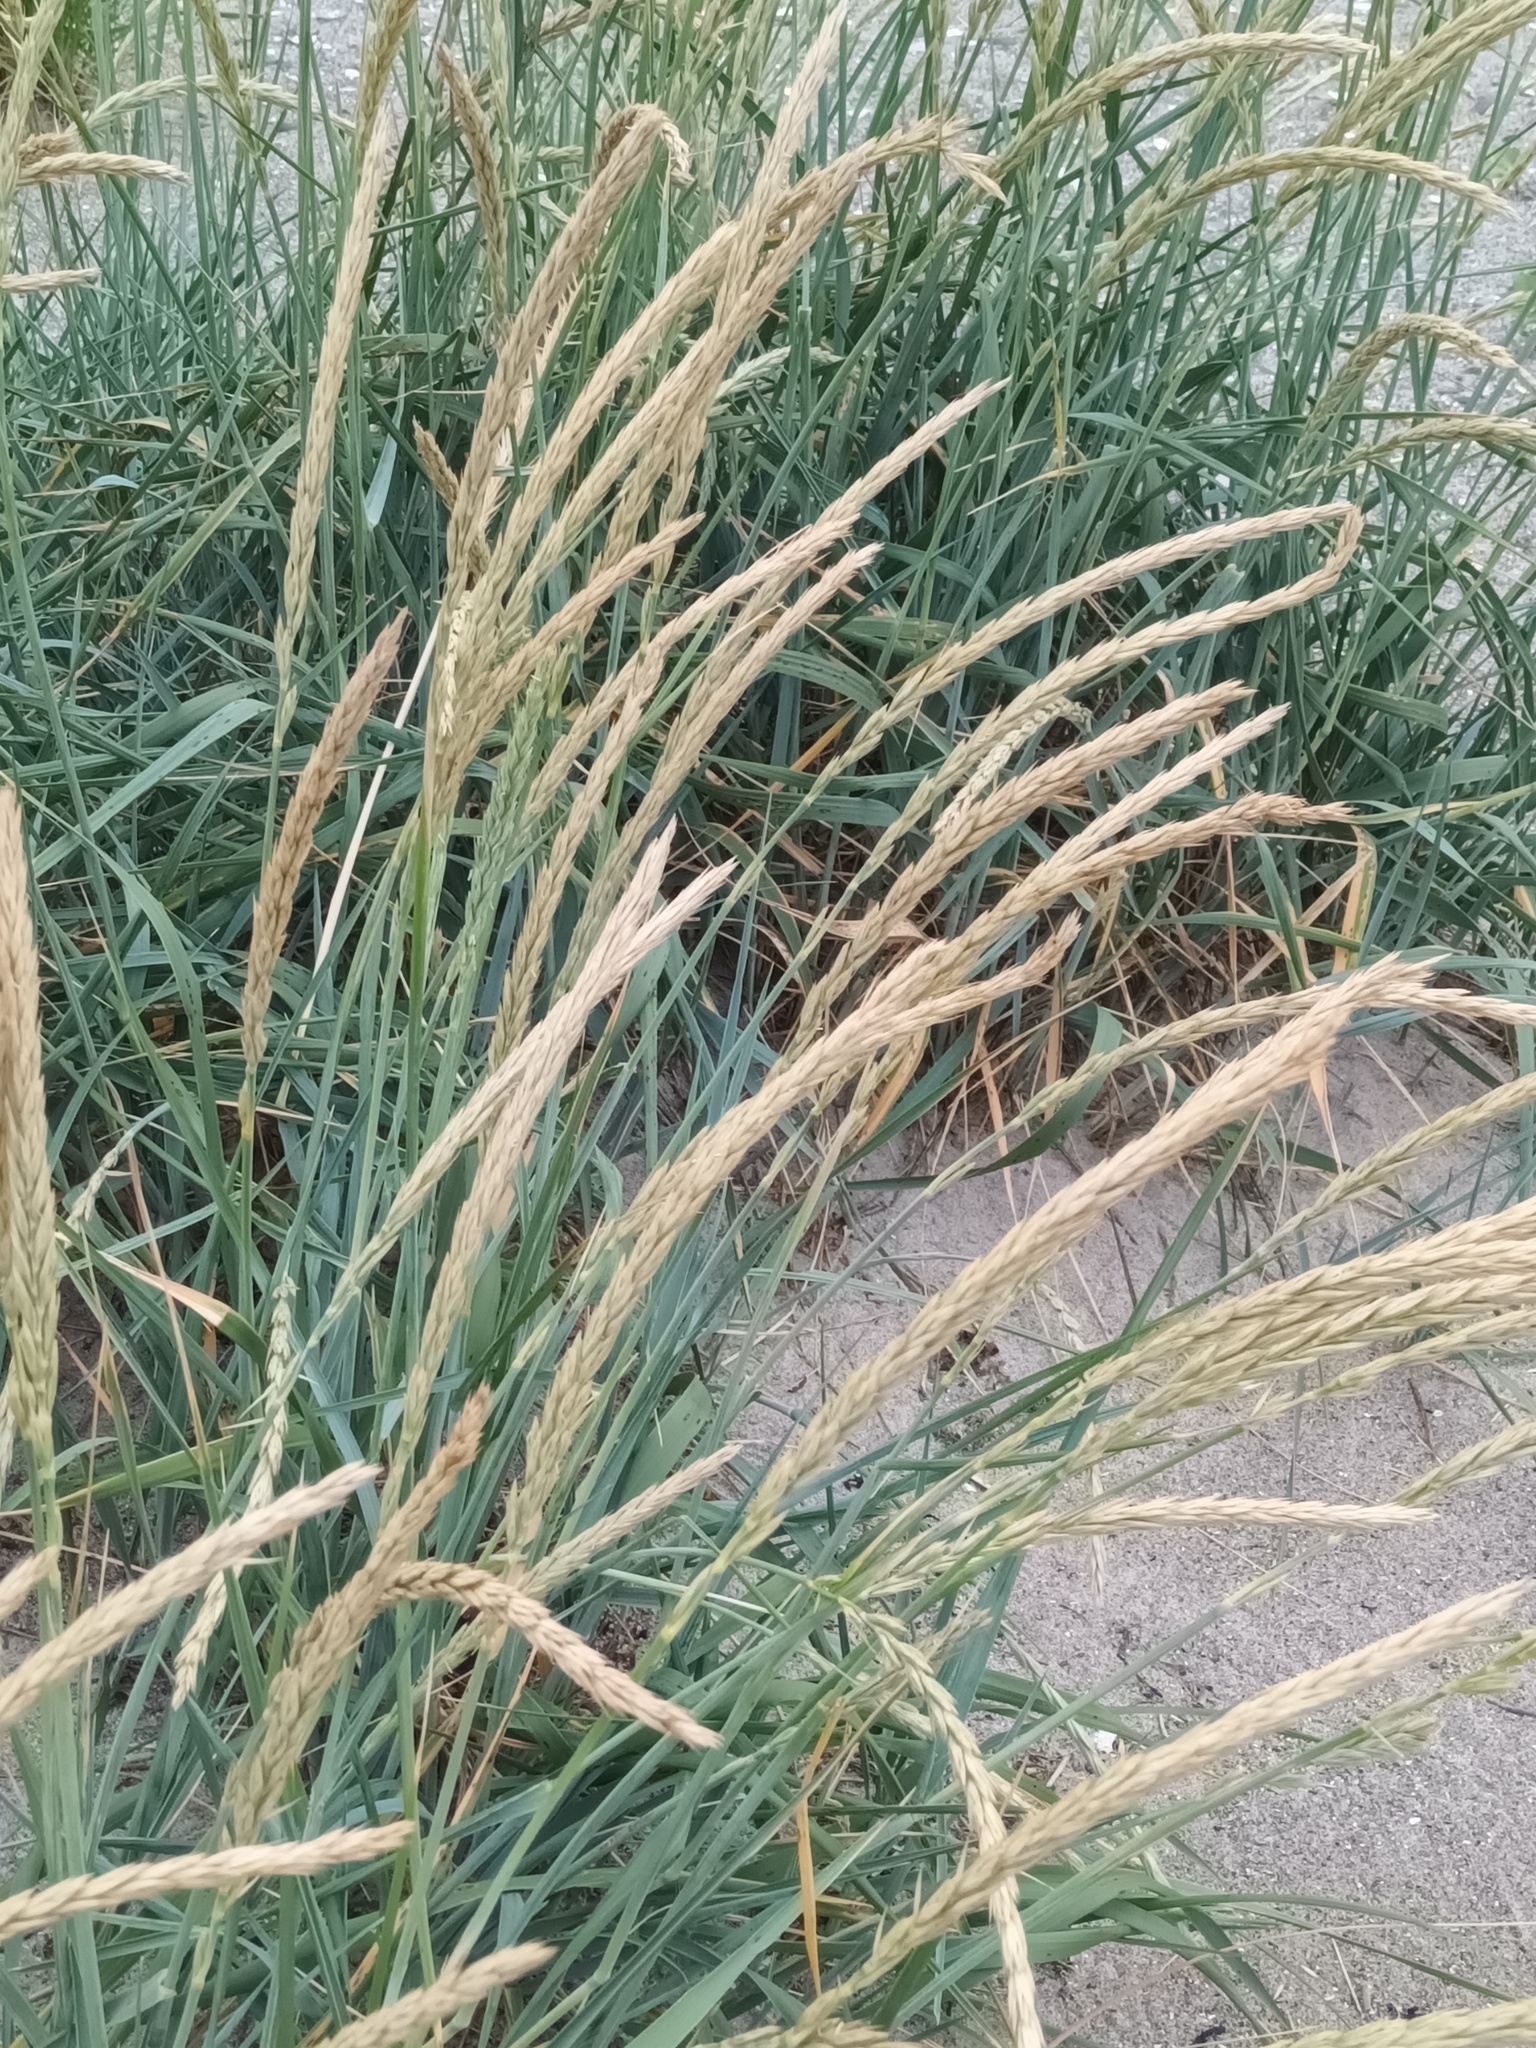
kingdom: Plantae
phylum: Tracheophyta
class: Liliopsida
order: Poales
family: Poaceae
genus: Calamagrostis
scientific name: Calamagrostis breviligulata
